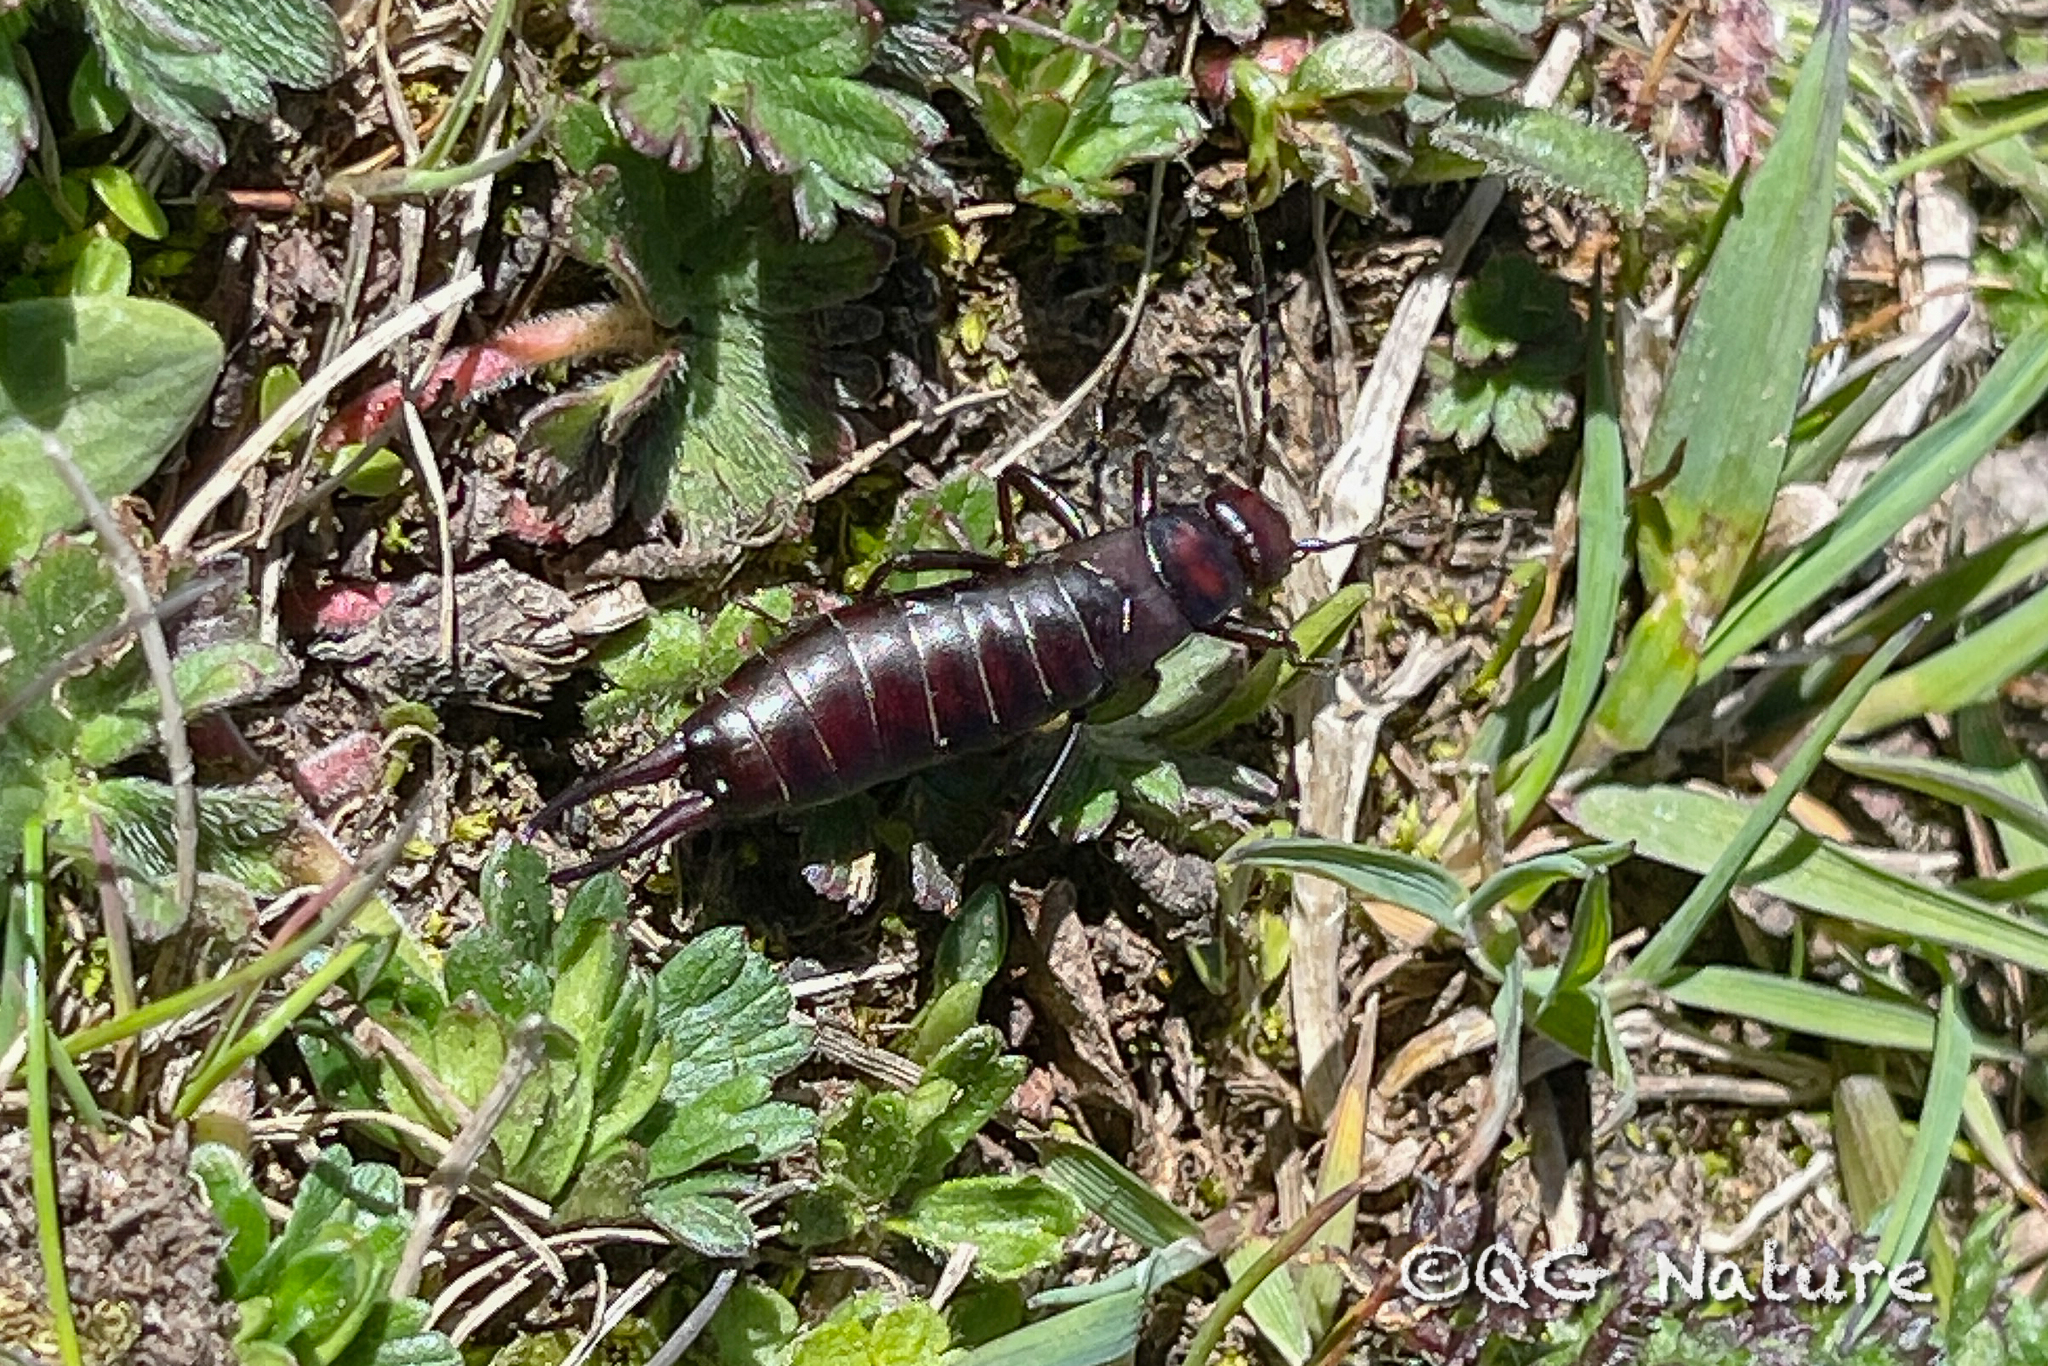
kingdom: Animalia
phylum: Arthropoda
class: Insecta
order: Dermaptera
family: Forficulidae
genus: Guanchia
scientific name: Guanchia uvarovi
